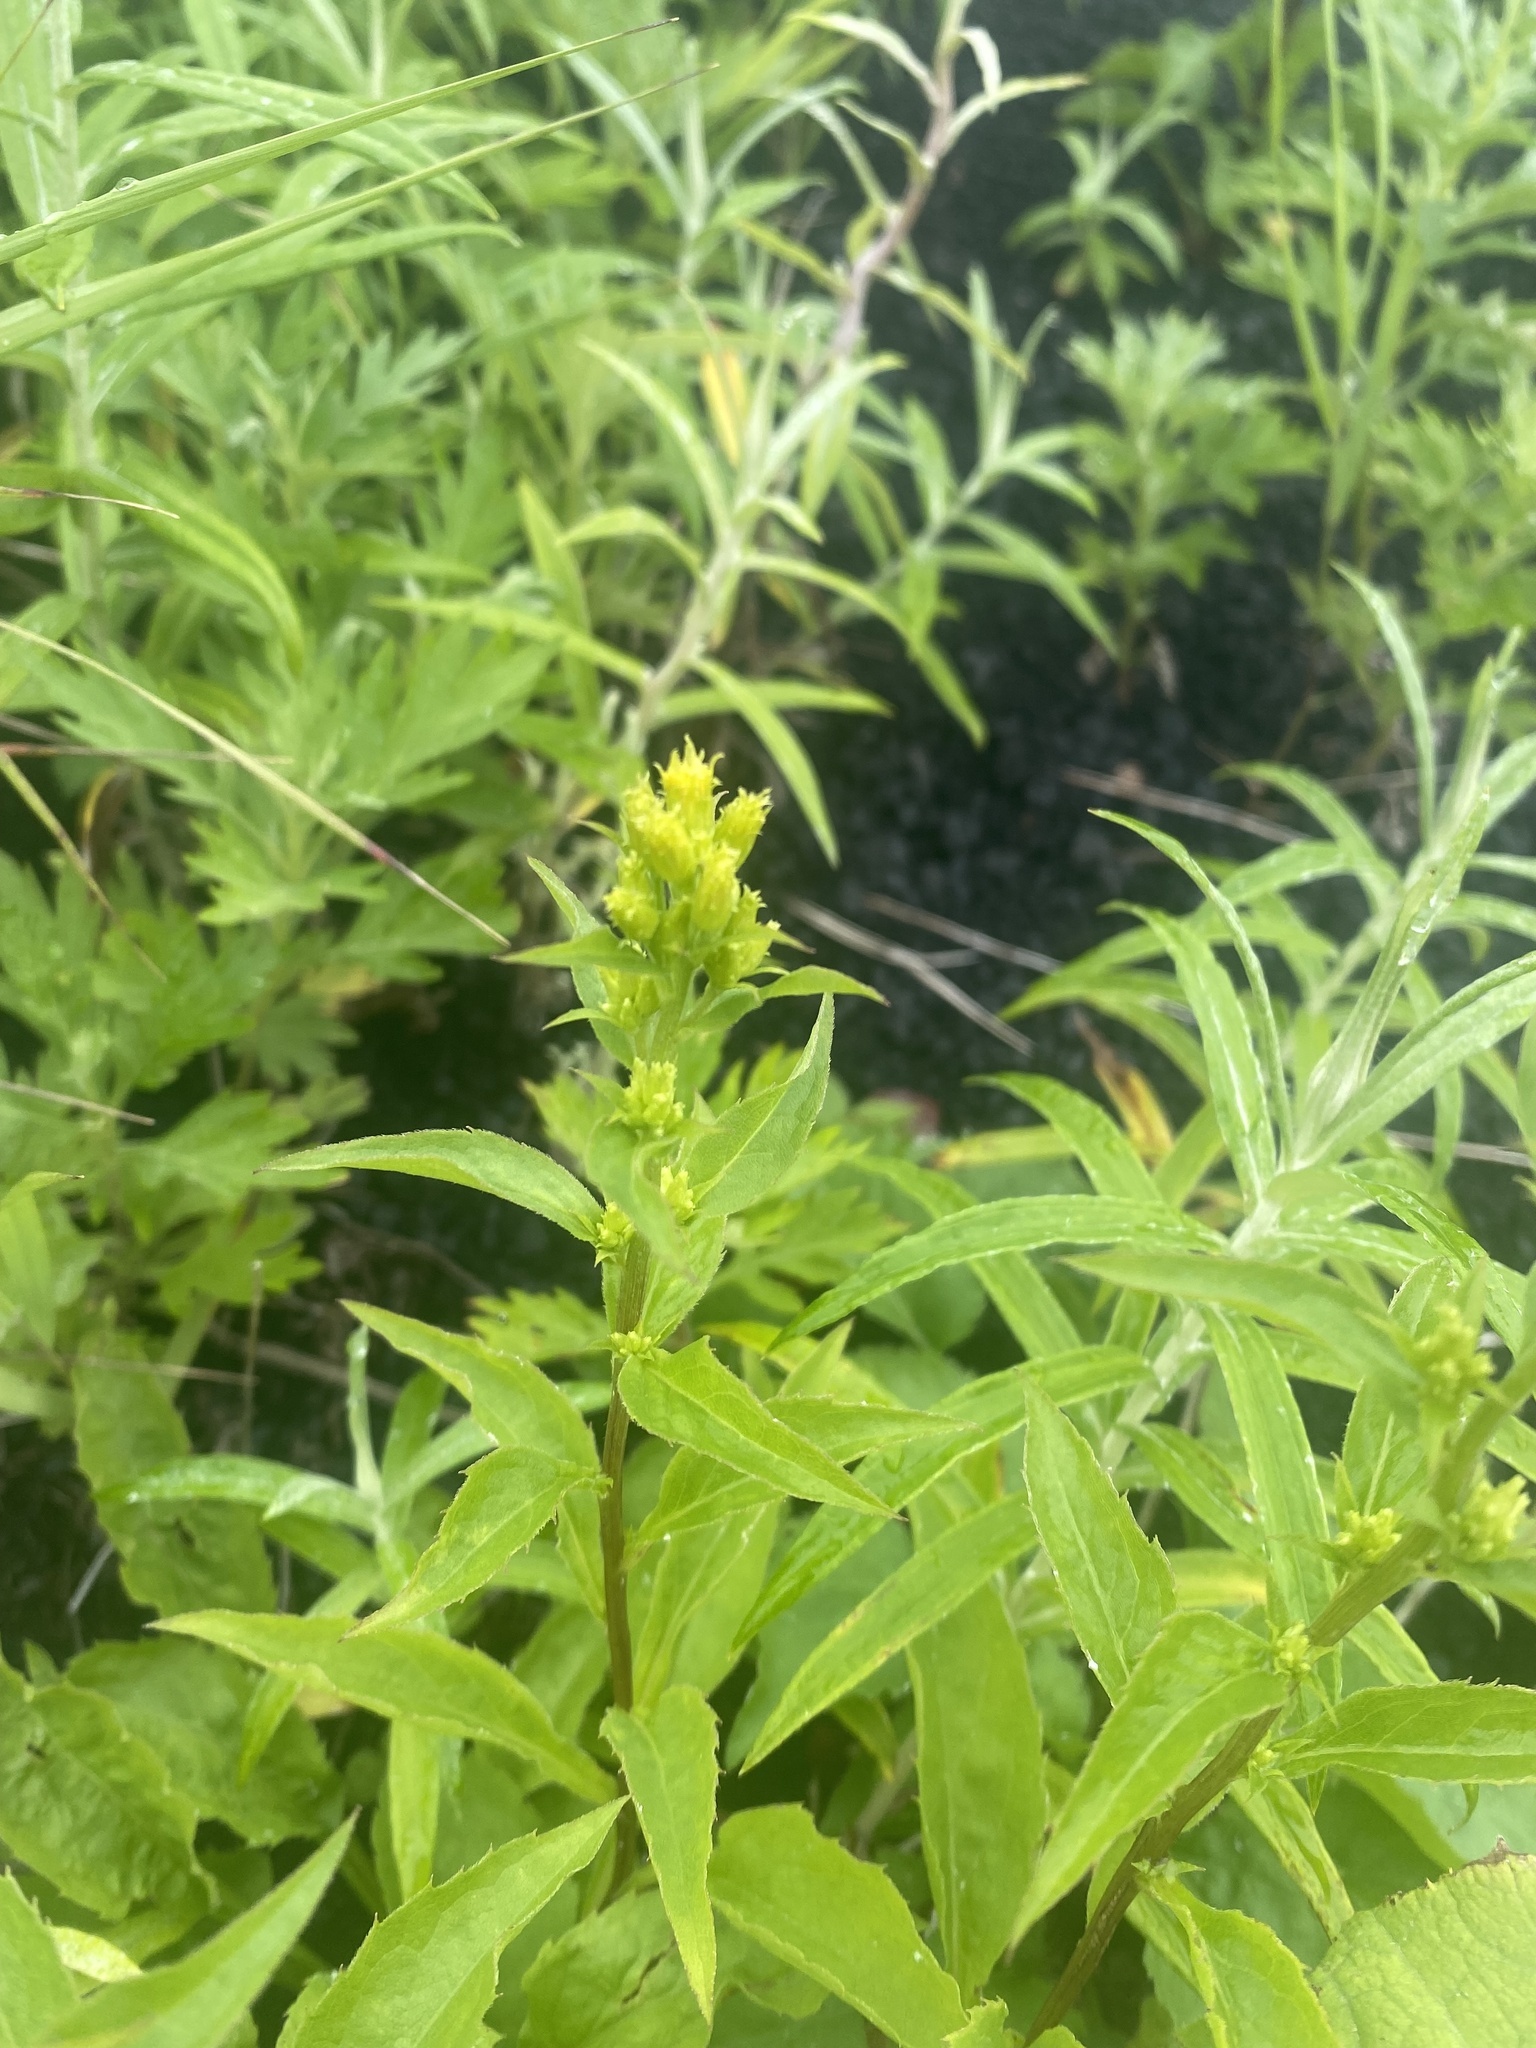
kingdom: Plantae
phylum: Tracheophyta
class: Magnoliopsida
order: Asterales
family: Asteraceae
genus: Solidago
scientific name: Solidago dahurica
